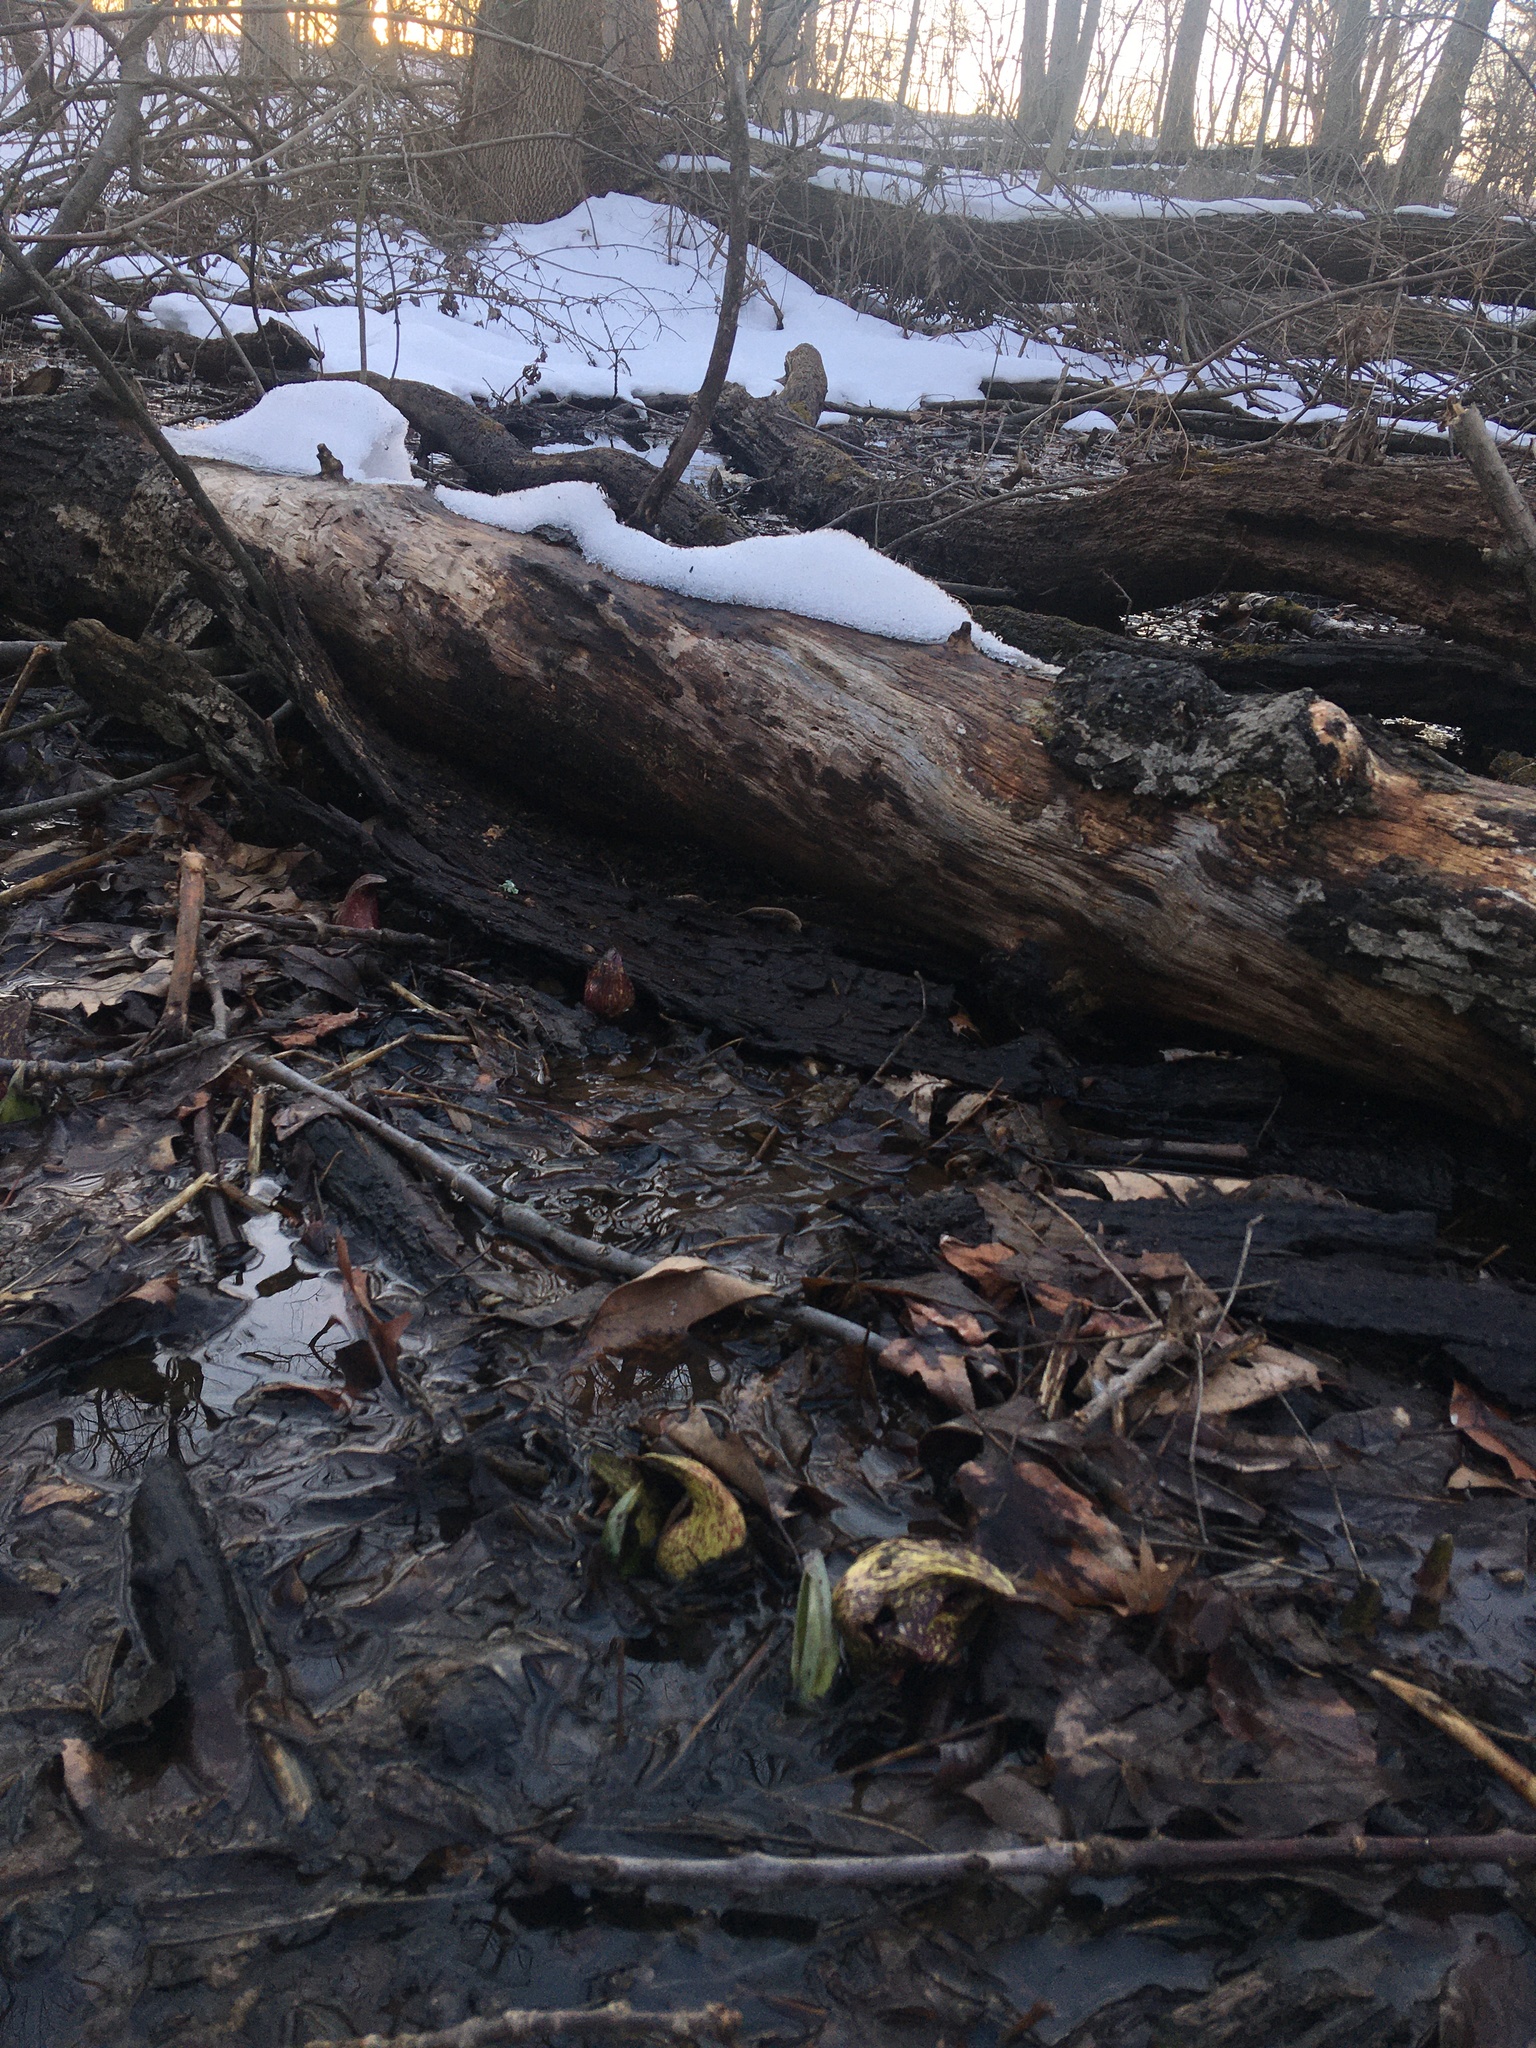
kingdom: Plantae
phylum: Tracheophyta
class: Liliopsida
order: Alismatales
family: Araceae
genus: Symplocarpus
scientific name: Symplocarpus foetidus
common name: Eastern skunk cabbage
